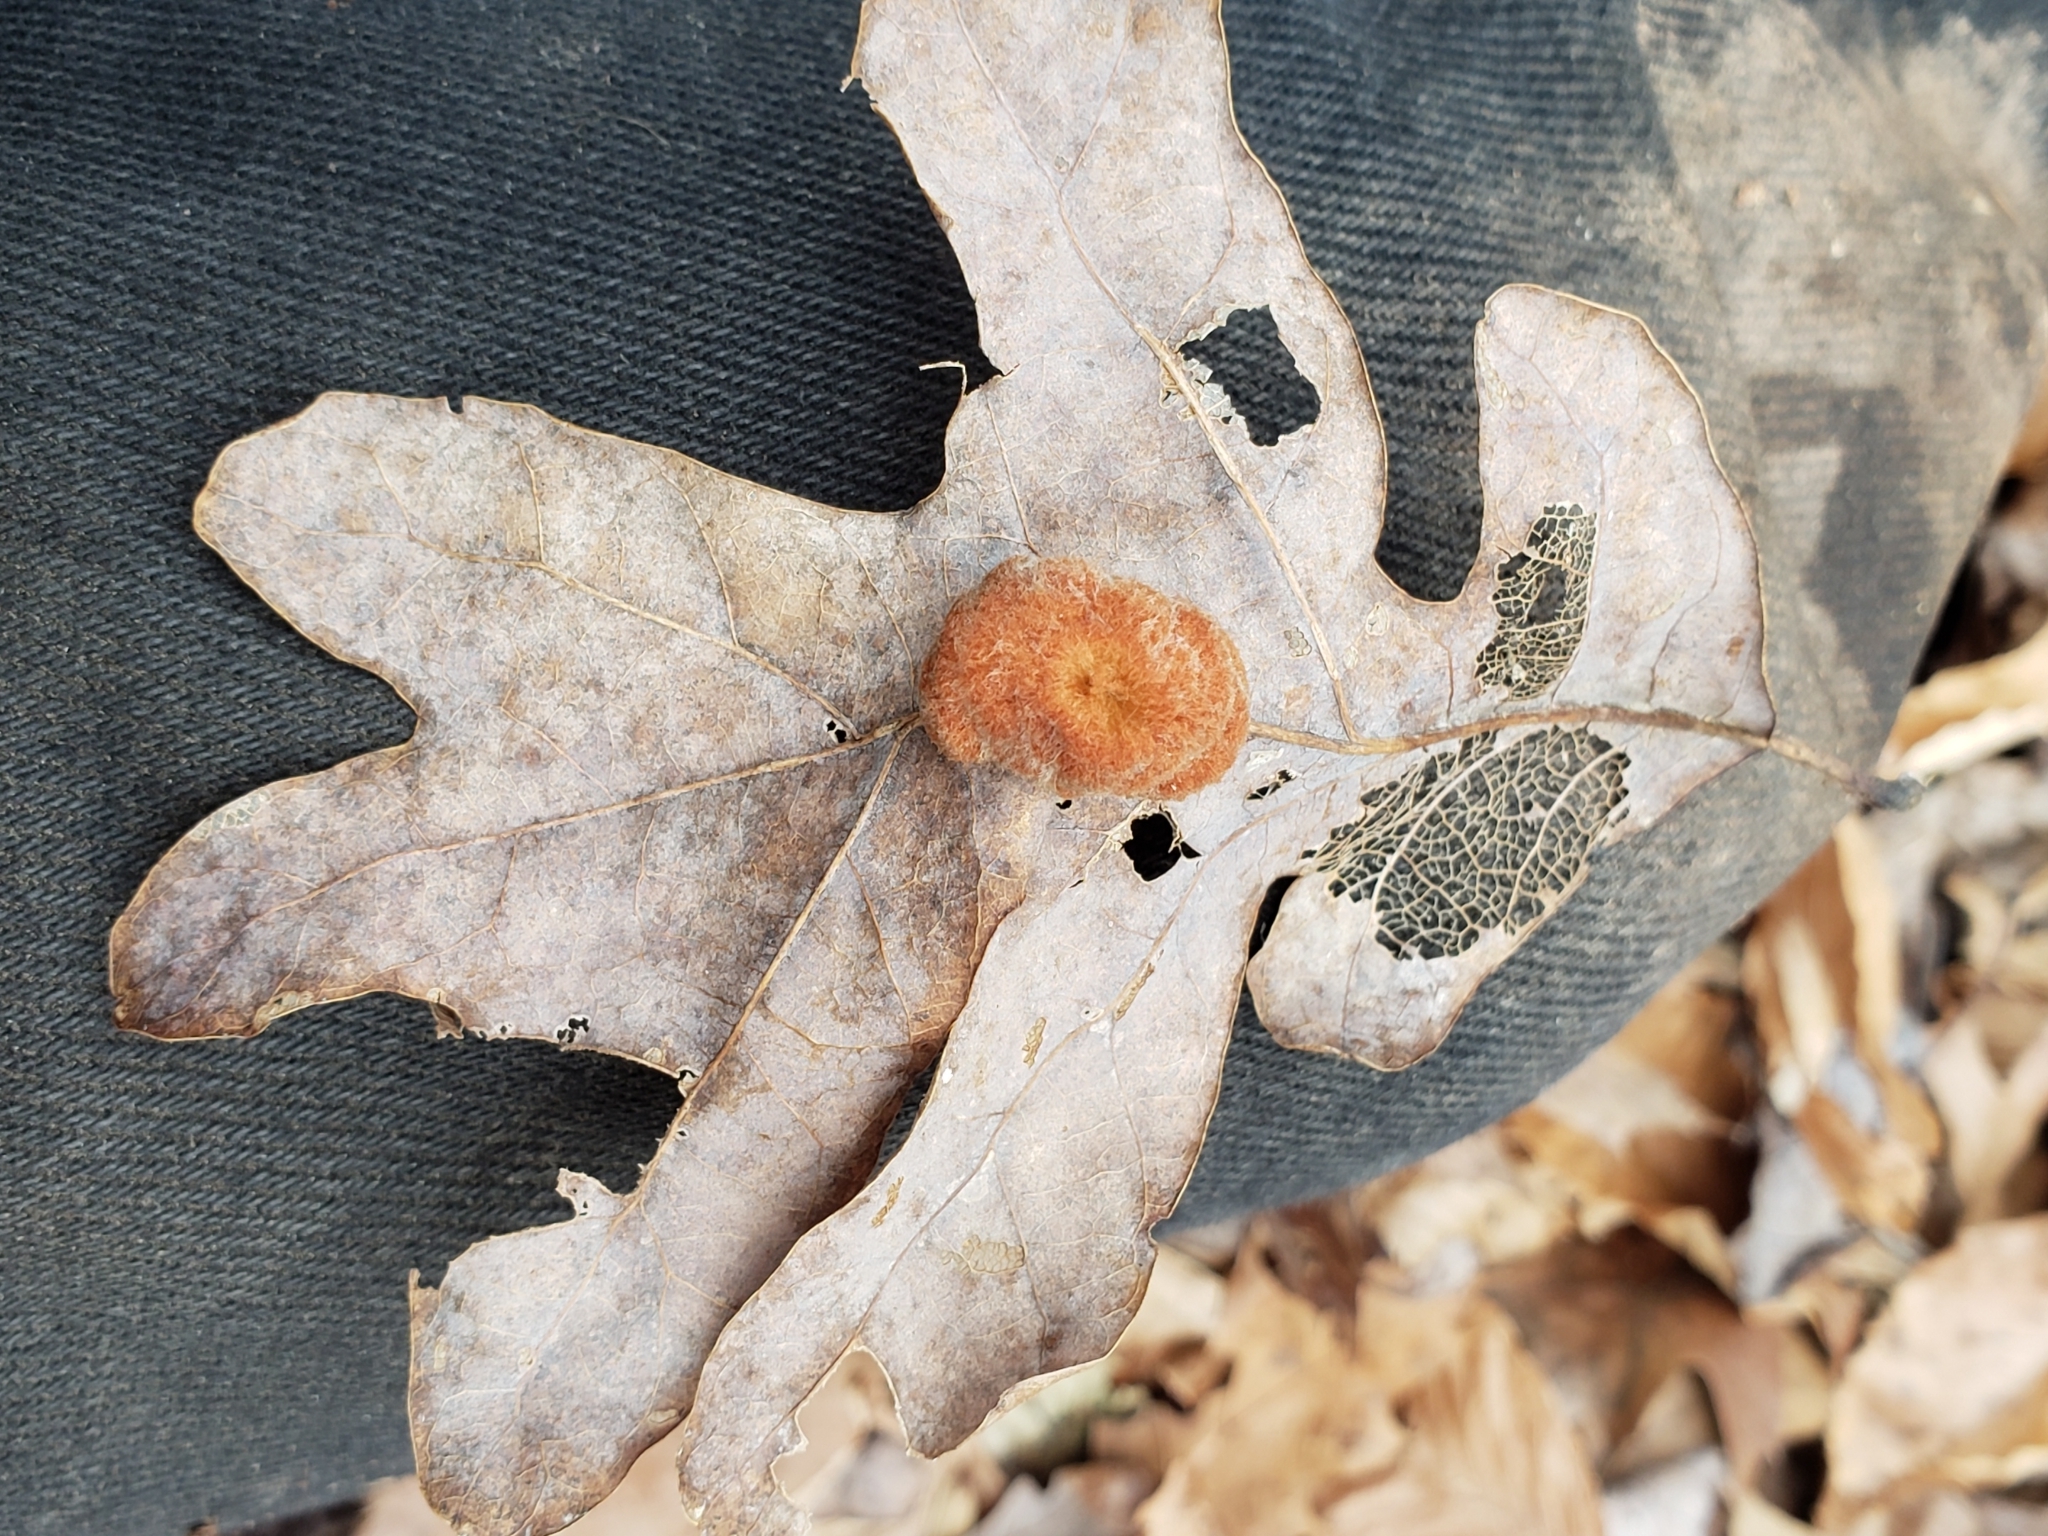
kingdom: Animalia
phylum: Arthropoda
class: Insecta
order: Hymenoptera
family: Cynipidae
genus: Andricus
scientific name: Andricus quercusflocci
